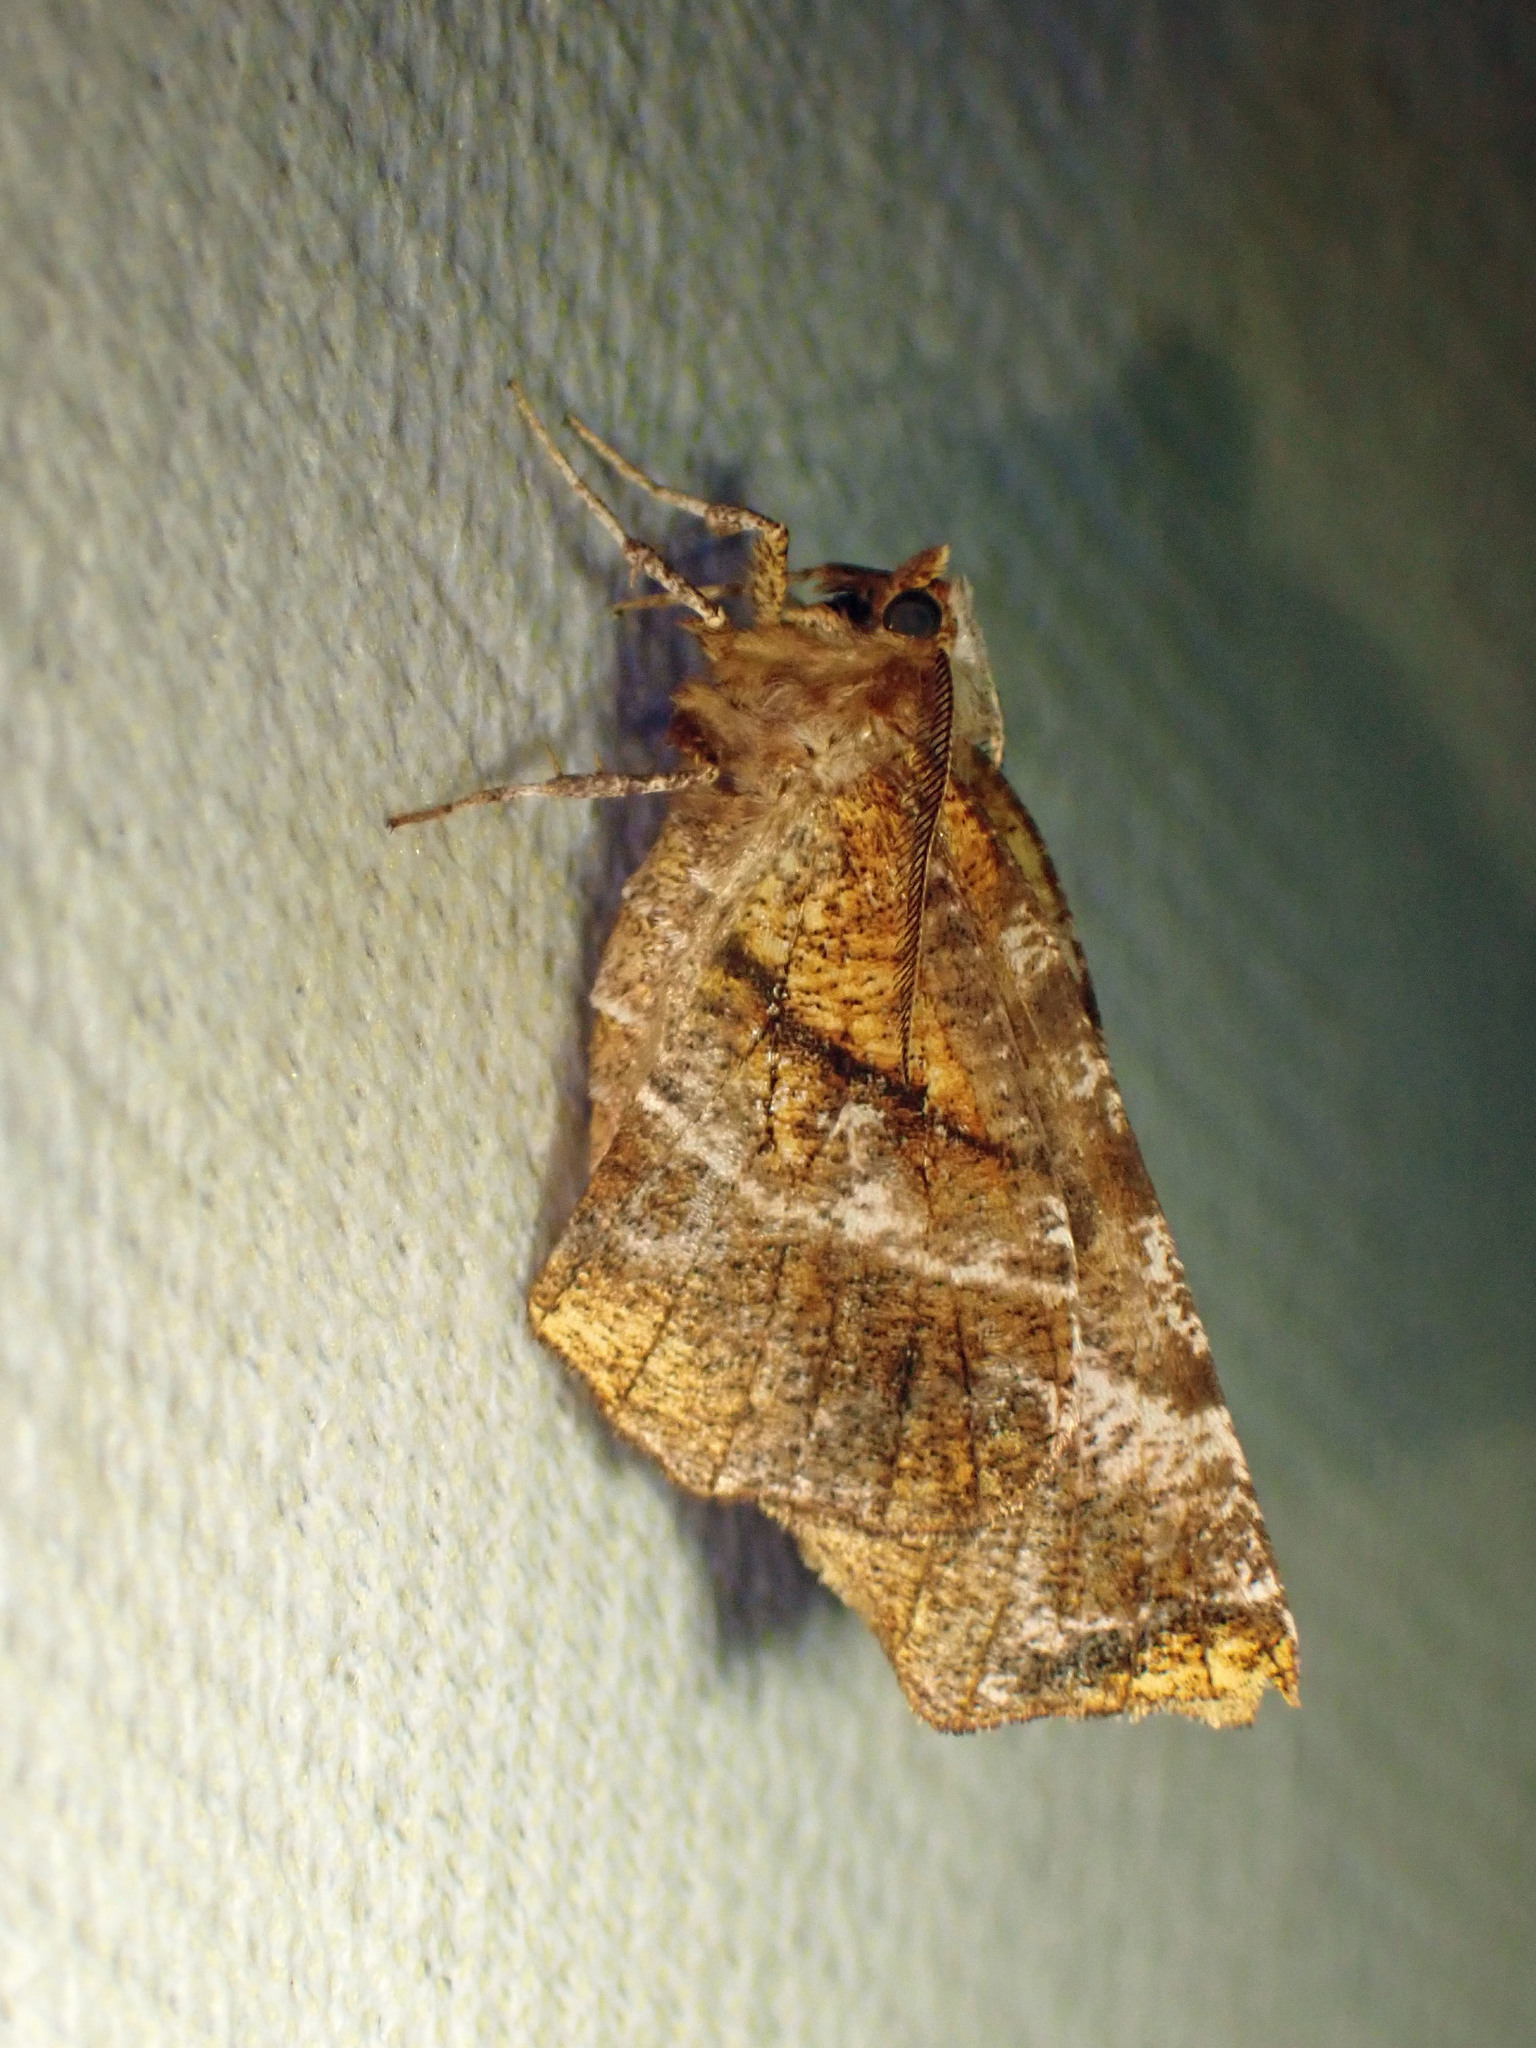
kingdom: Animalia
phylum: Arthropoda
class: Insecta
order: Lepidoptera
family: Geometridae
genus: Selenia
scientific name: Selenia alciphearia
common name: Brown-tipped thorn
